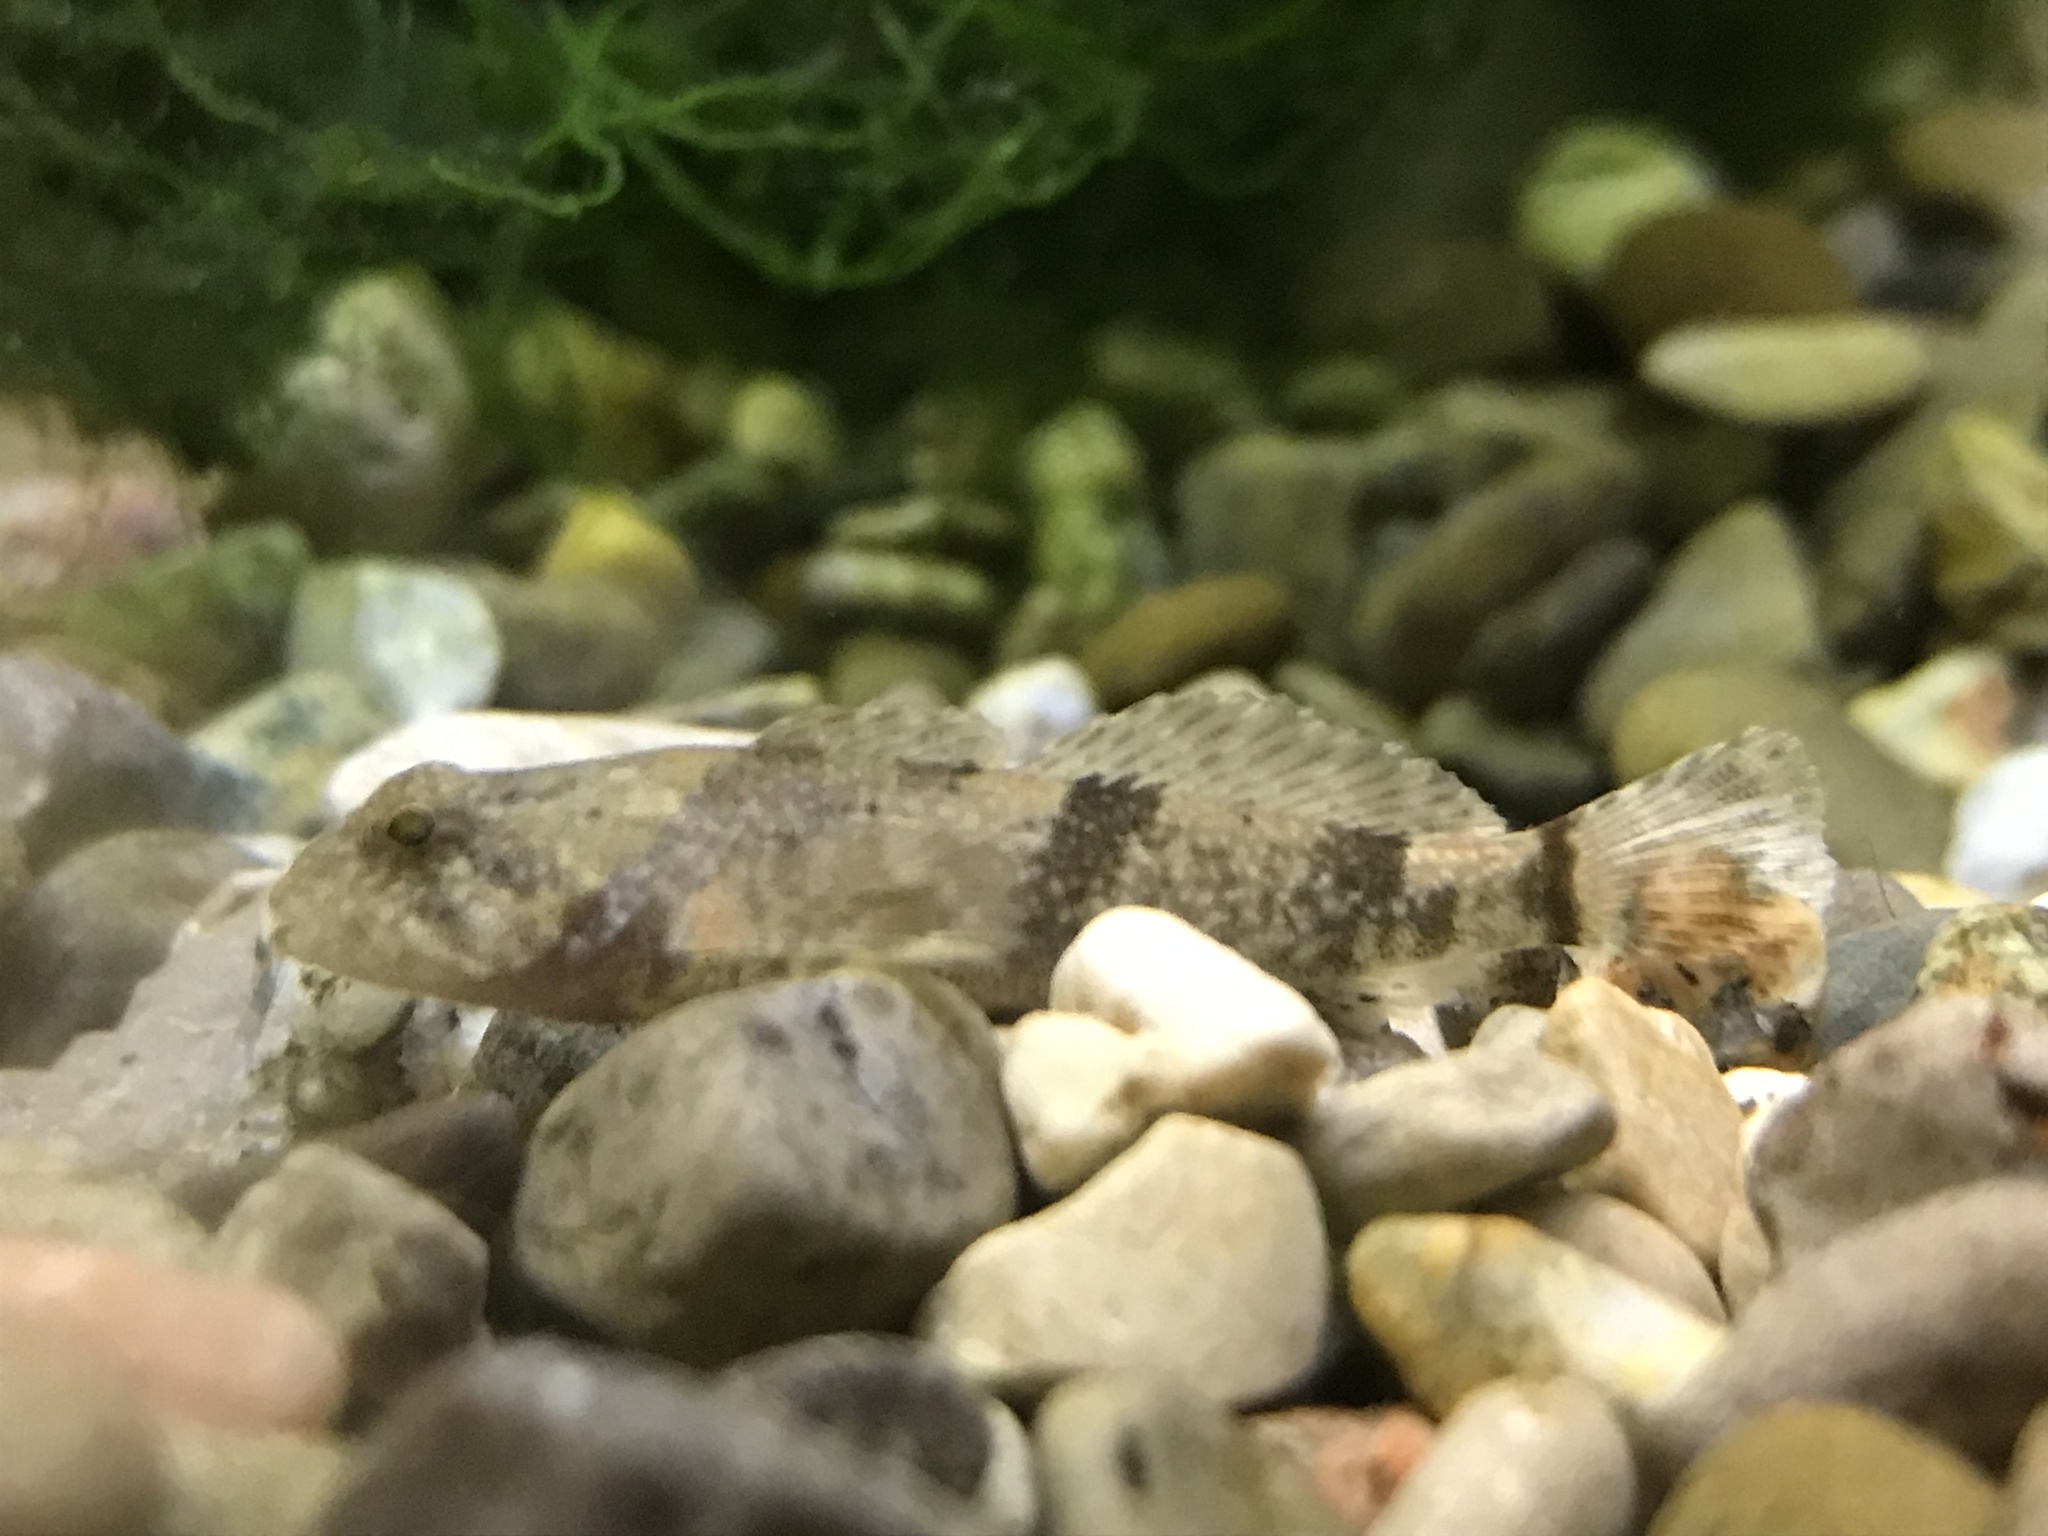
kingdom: Animalia
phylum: Chordata
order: Scorpaeniformes
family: Cottidae
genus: Cottus
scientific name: Cottus bairdii
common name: Mottled sculpin
